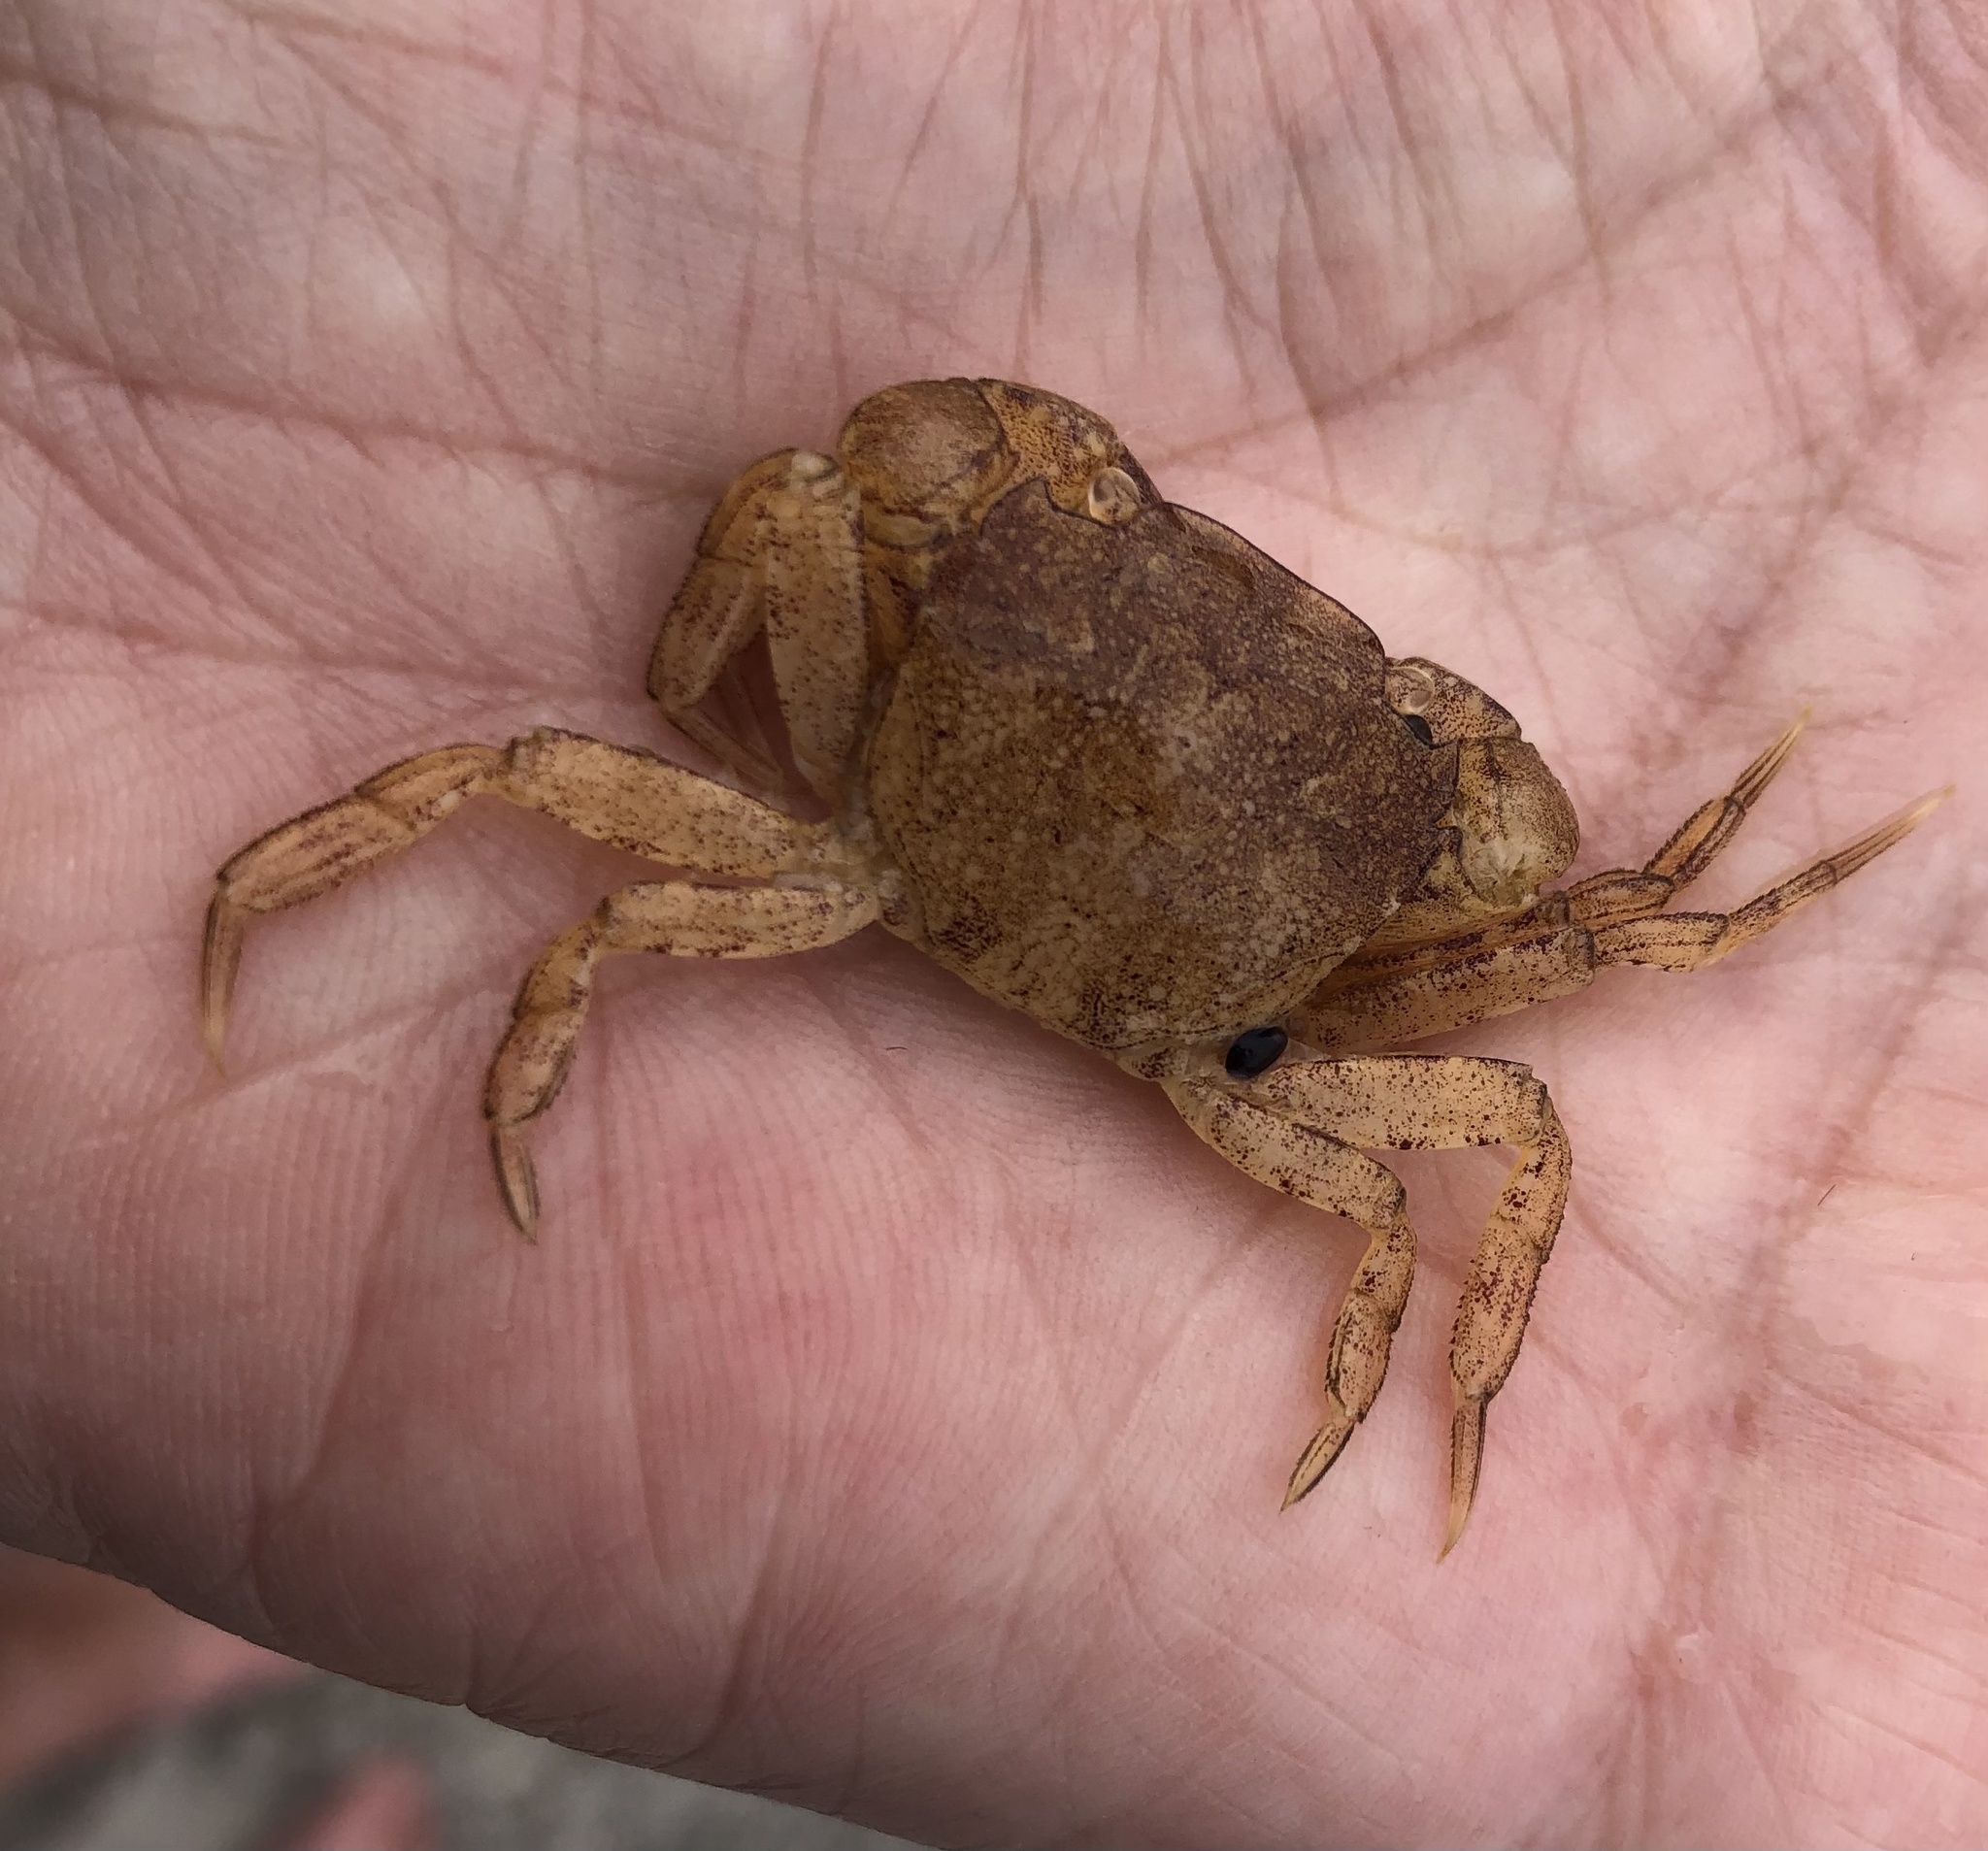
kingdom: Animalia
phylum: Arthropoda
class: Malacostraca
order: Decapoda
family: Varunidae
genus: Hemigrapsus
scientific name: Hemigrapsus takanoi
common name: Asian brush crab
